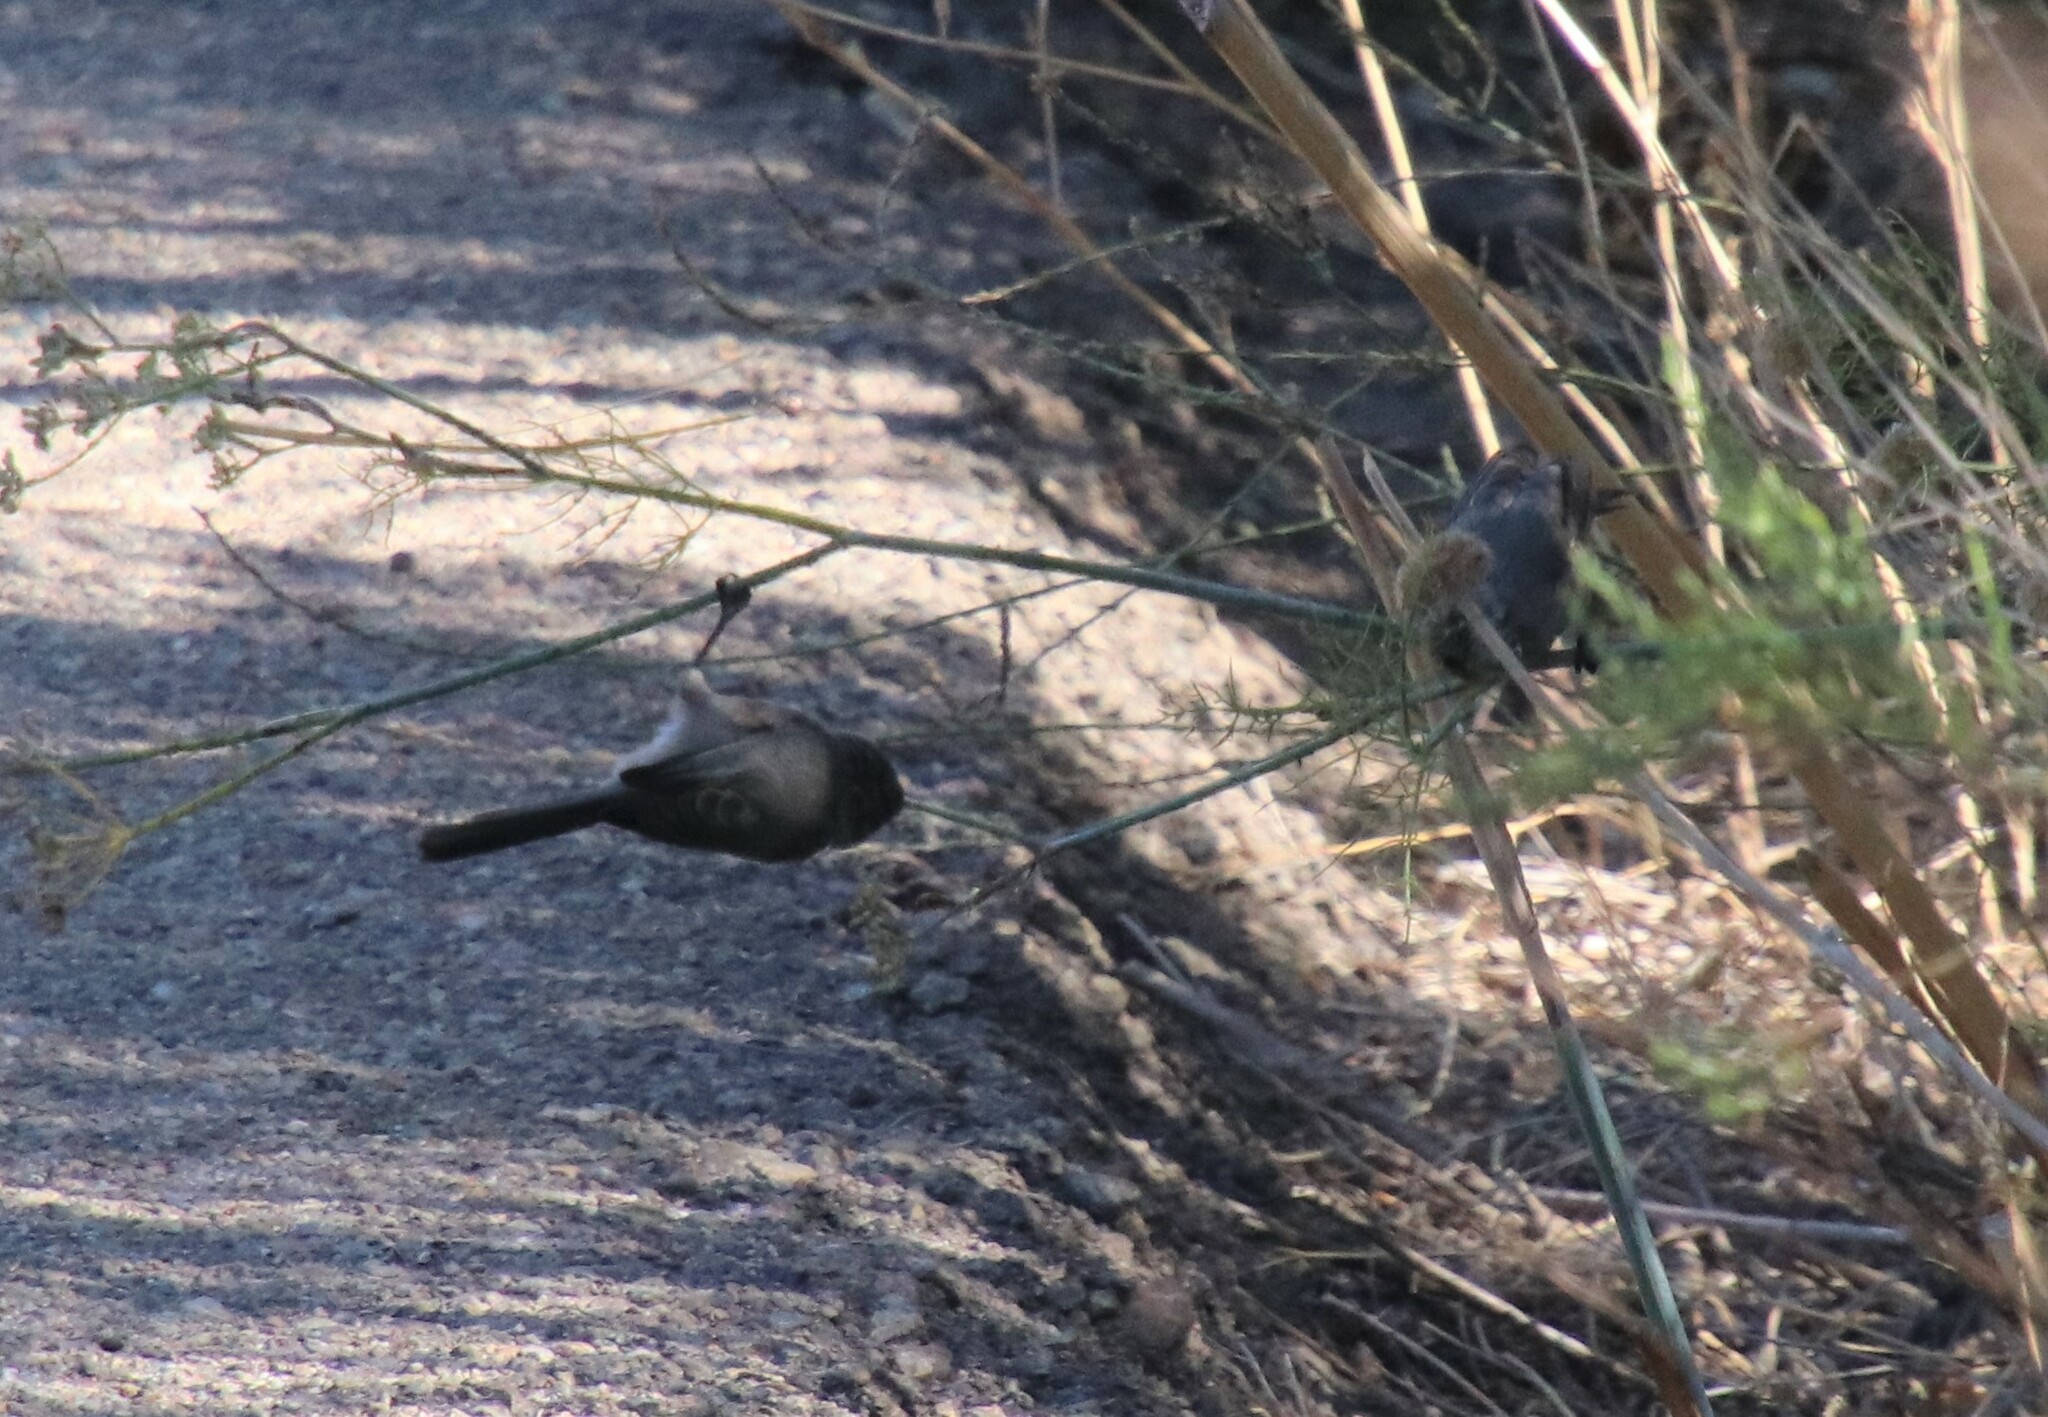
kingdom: Animalia
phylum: Chordata
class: Aves
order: Passeriformes
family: Aegithalidae
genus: Psaltriparus
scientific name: Psaltriparus minimus
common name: American bushtit
